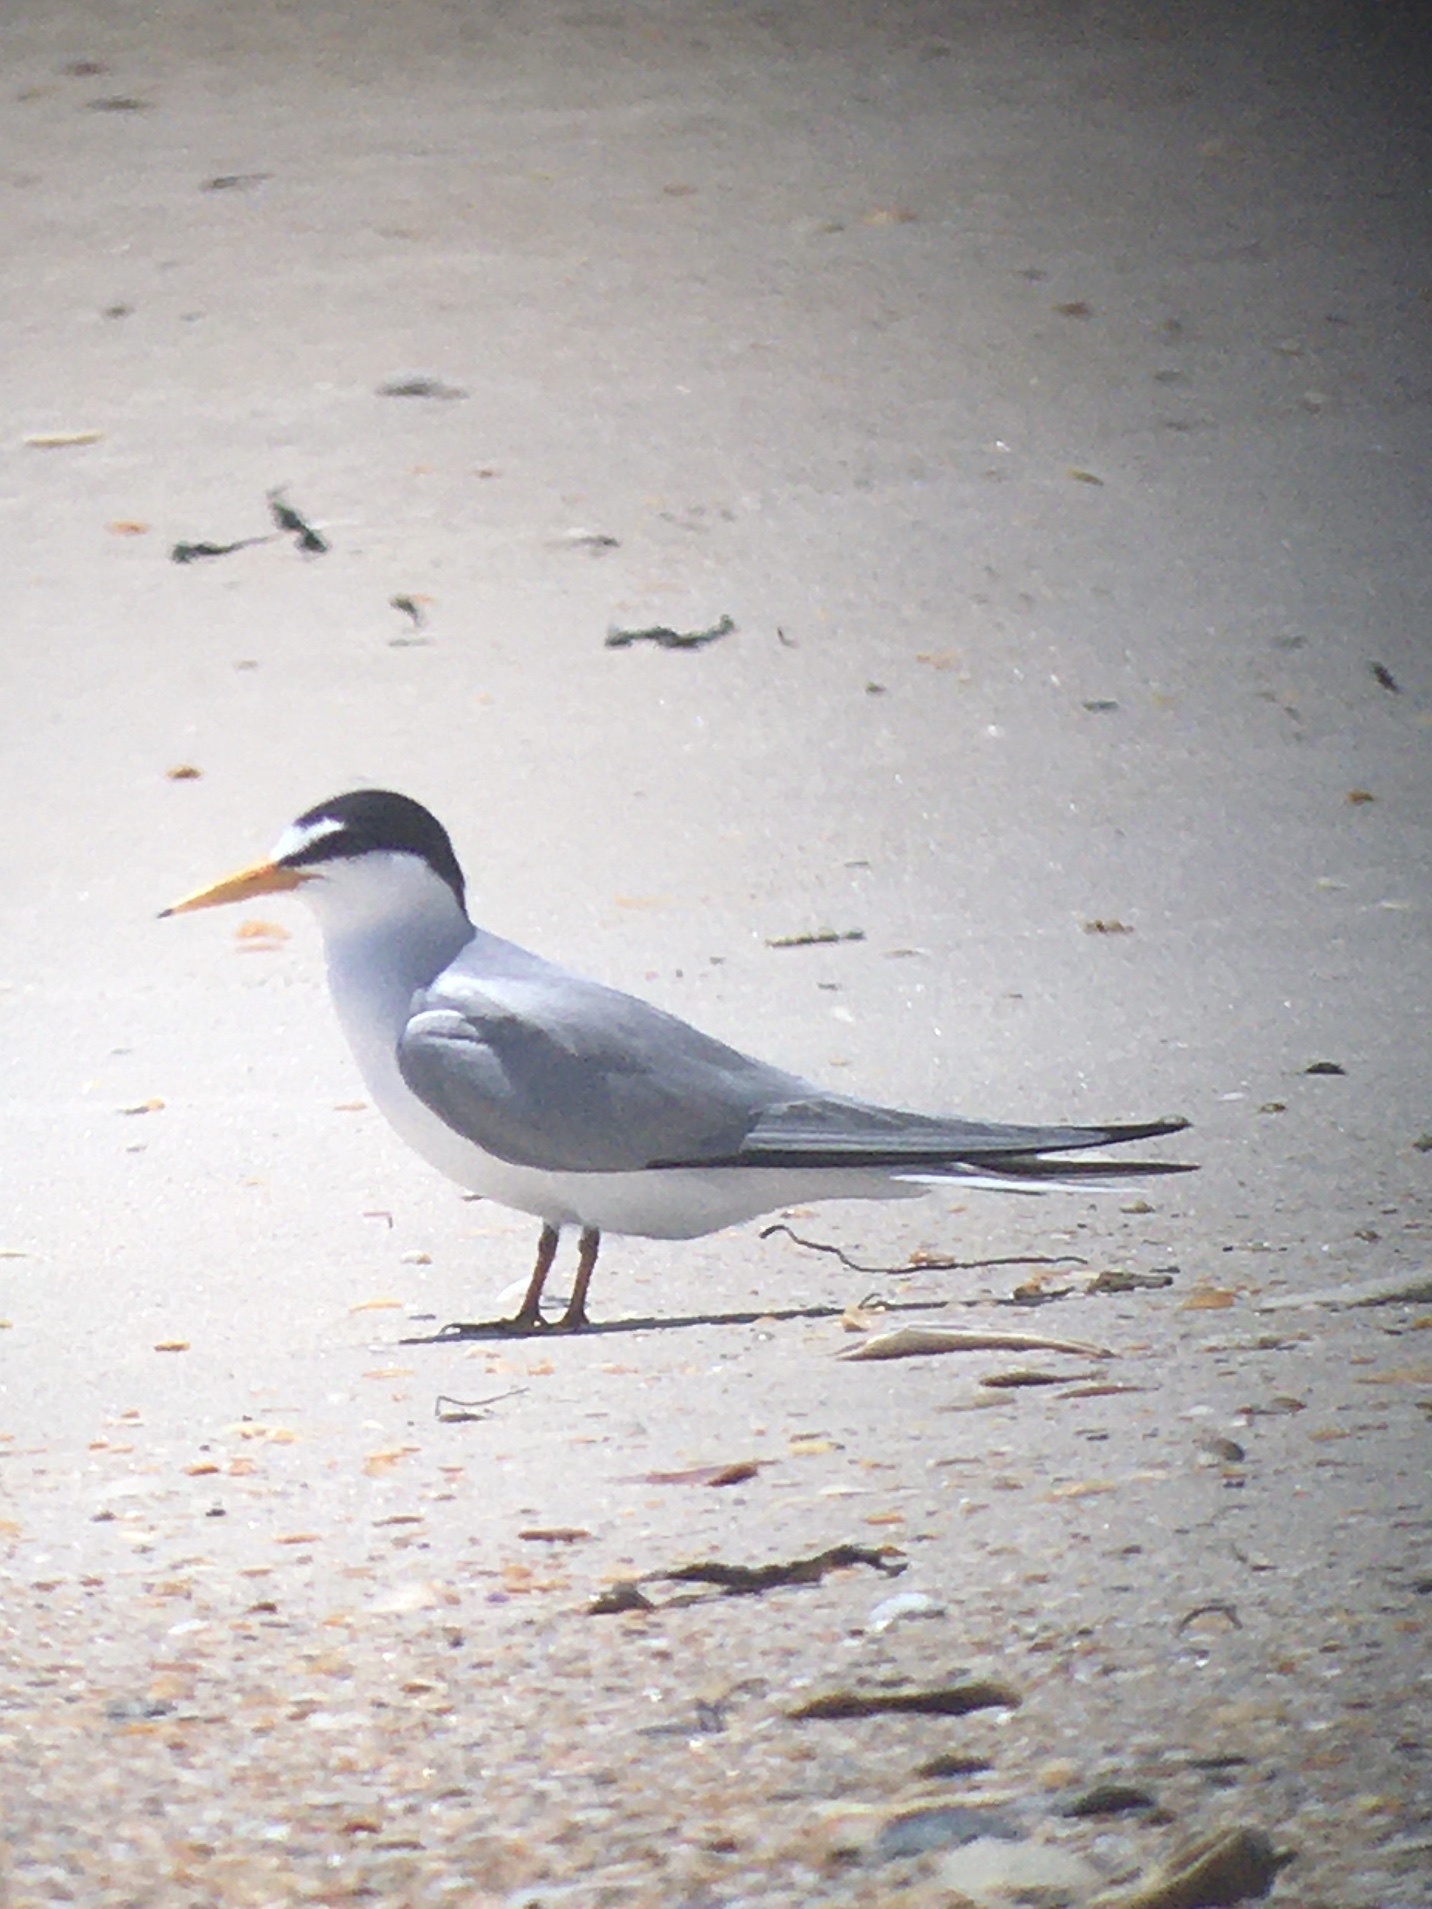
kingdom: Animalia
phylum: Chordata
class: Aves
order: Charadriiformes
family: Laridae
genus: Sternula
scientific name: Sternula antillarum
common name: Least tern
